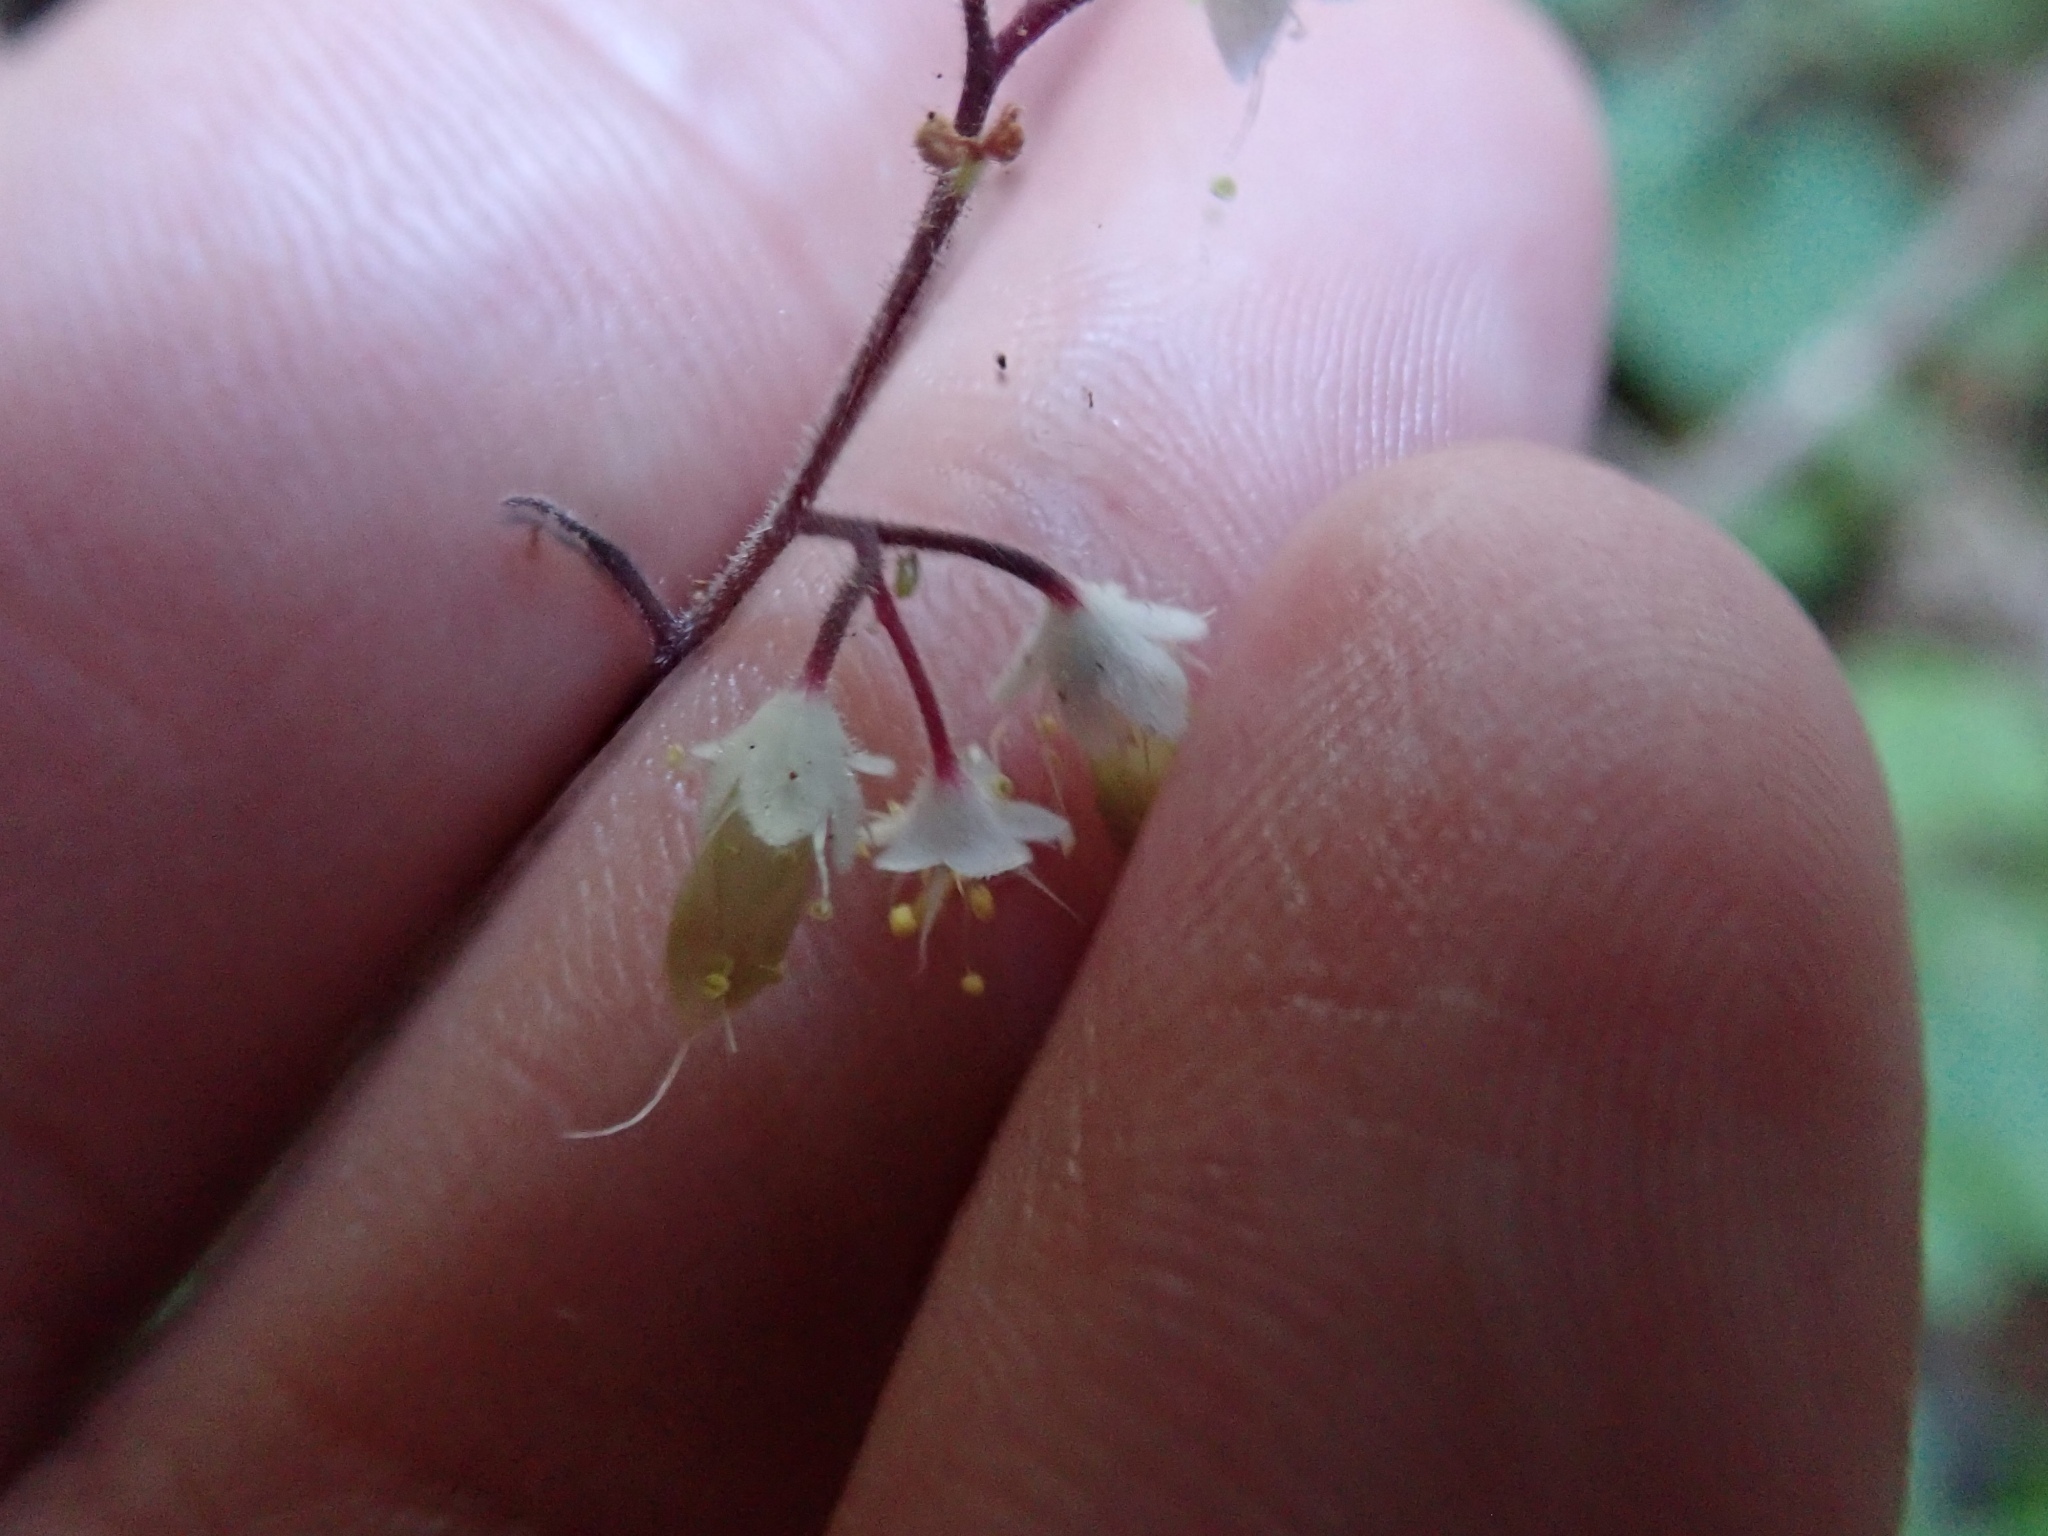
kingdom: Plantae
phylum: Tracheophyta
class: Magnoliopsida
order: Saxifragales
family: Saxifragaceae
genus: Tiarella
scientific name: Tiarella trifoliata
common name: Sugar-scoop
